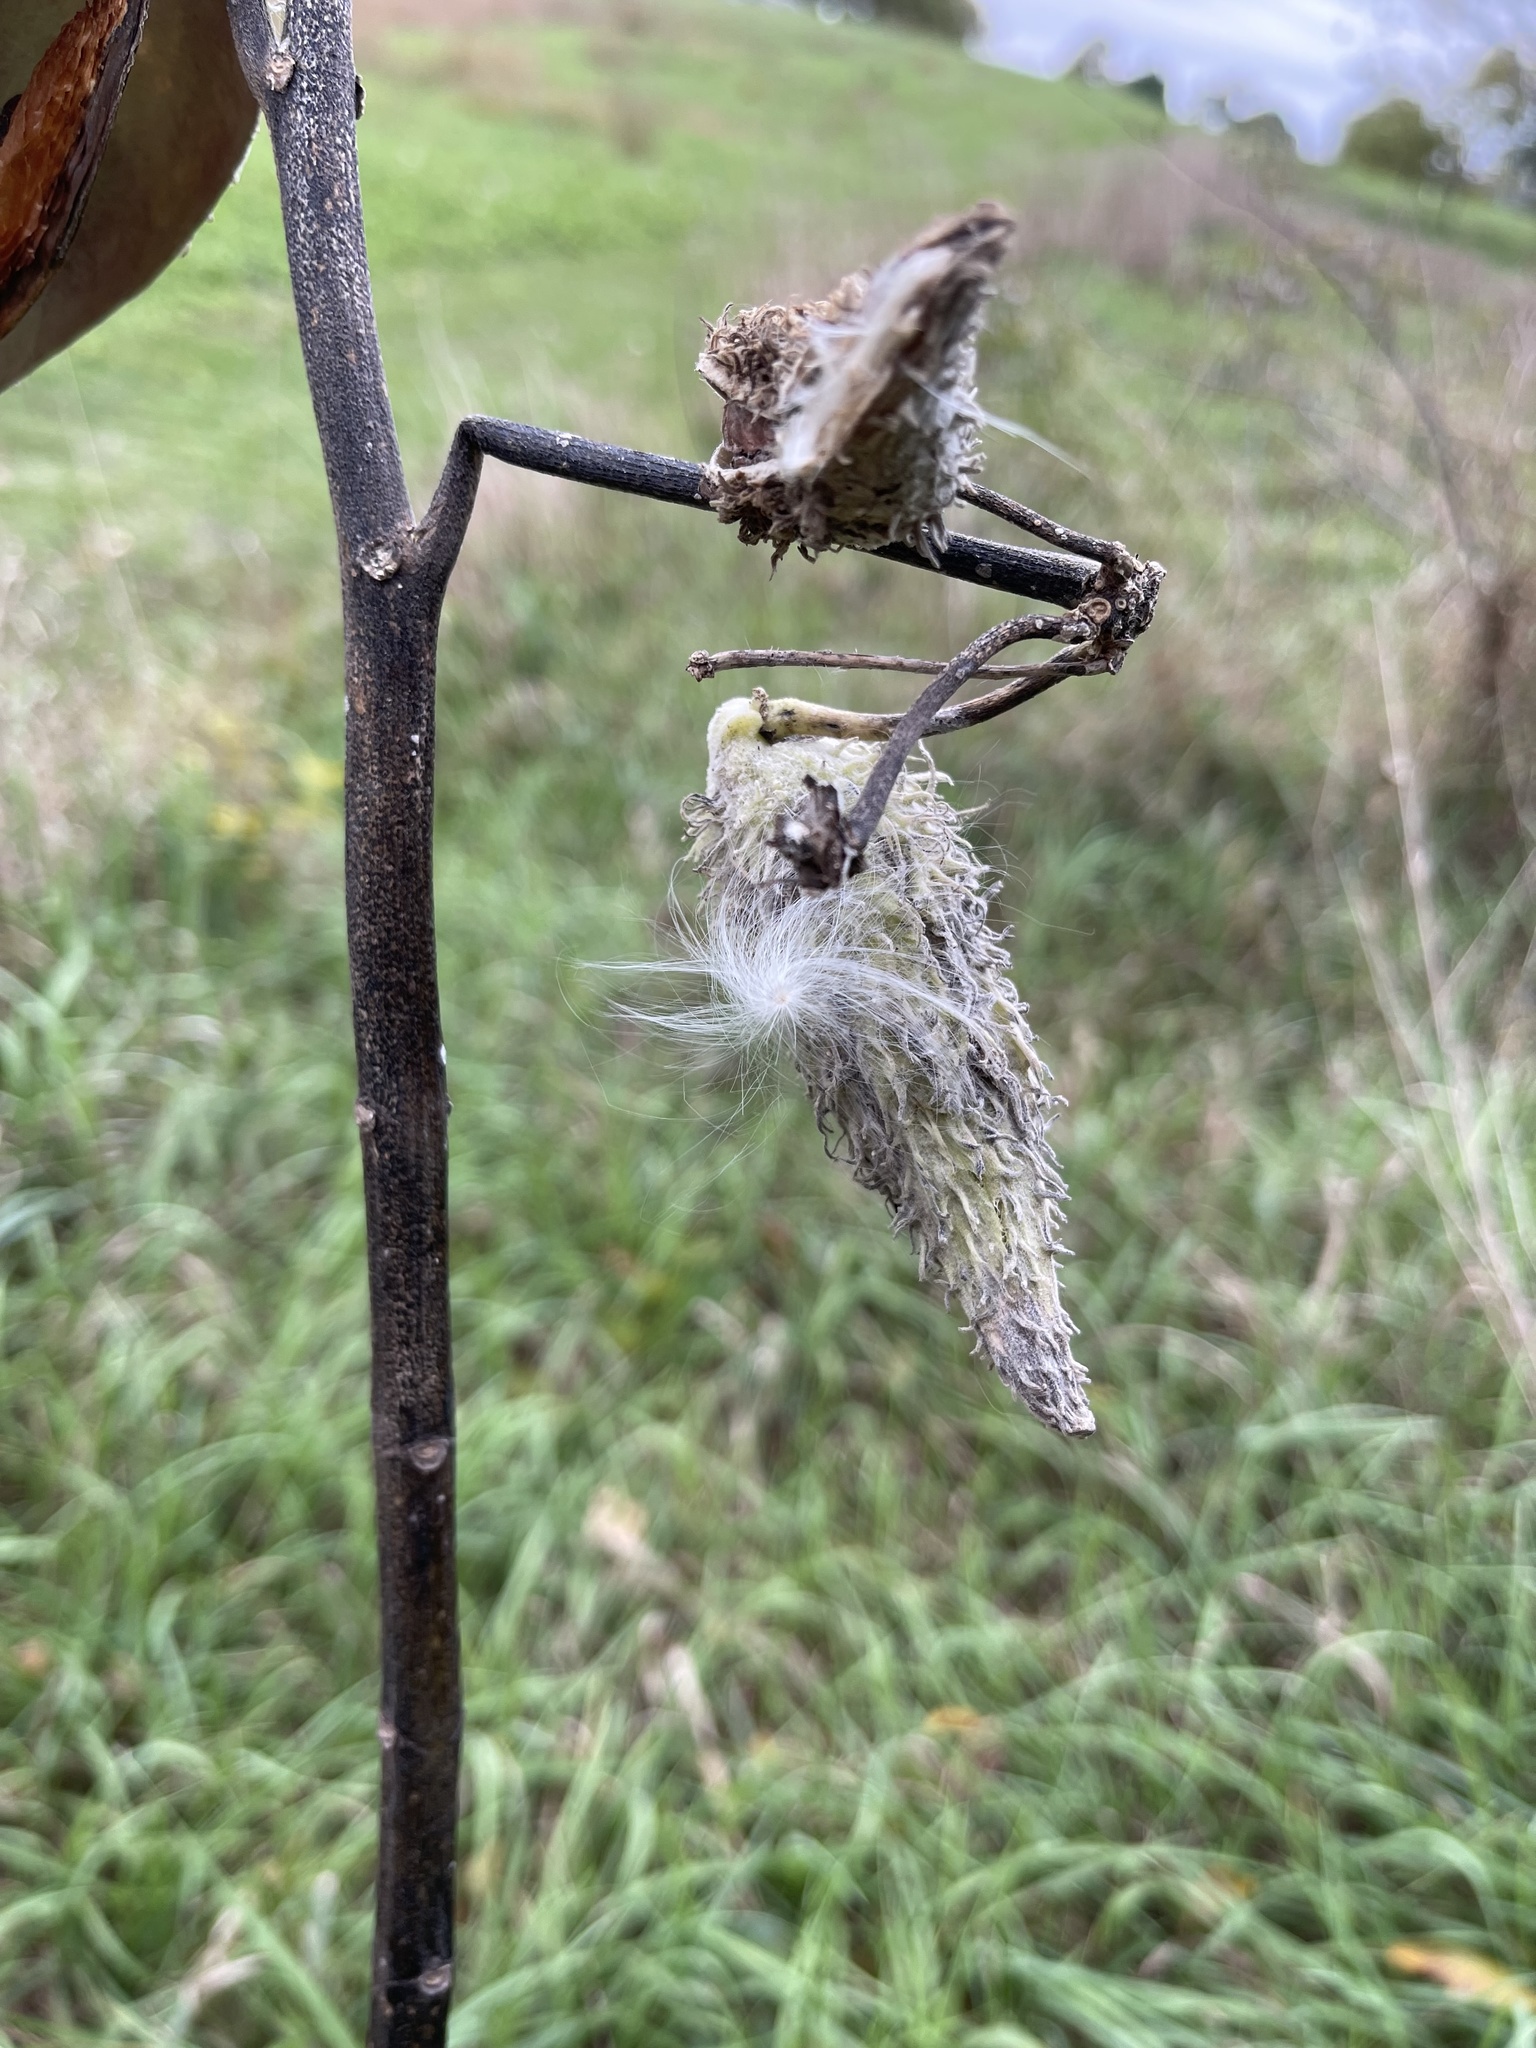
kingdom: Plantae
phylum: Tracheophyta
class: Magnoliopsida
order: Gentianales
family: Apocynaceae
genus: Asclepias
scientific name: Asclepias syriaca
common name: Common milkweed
